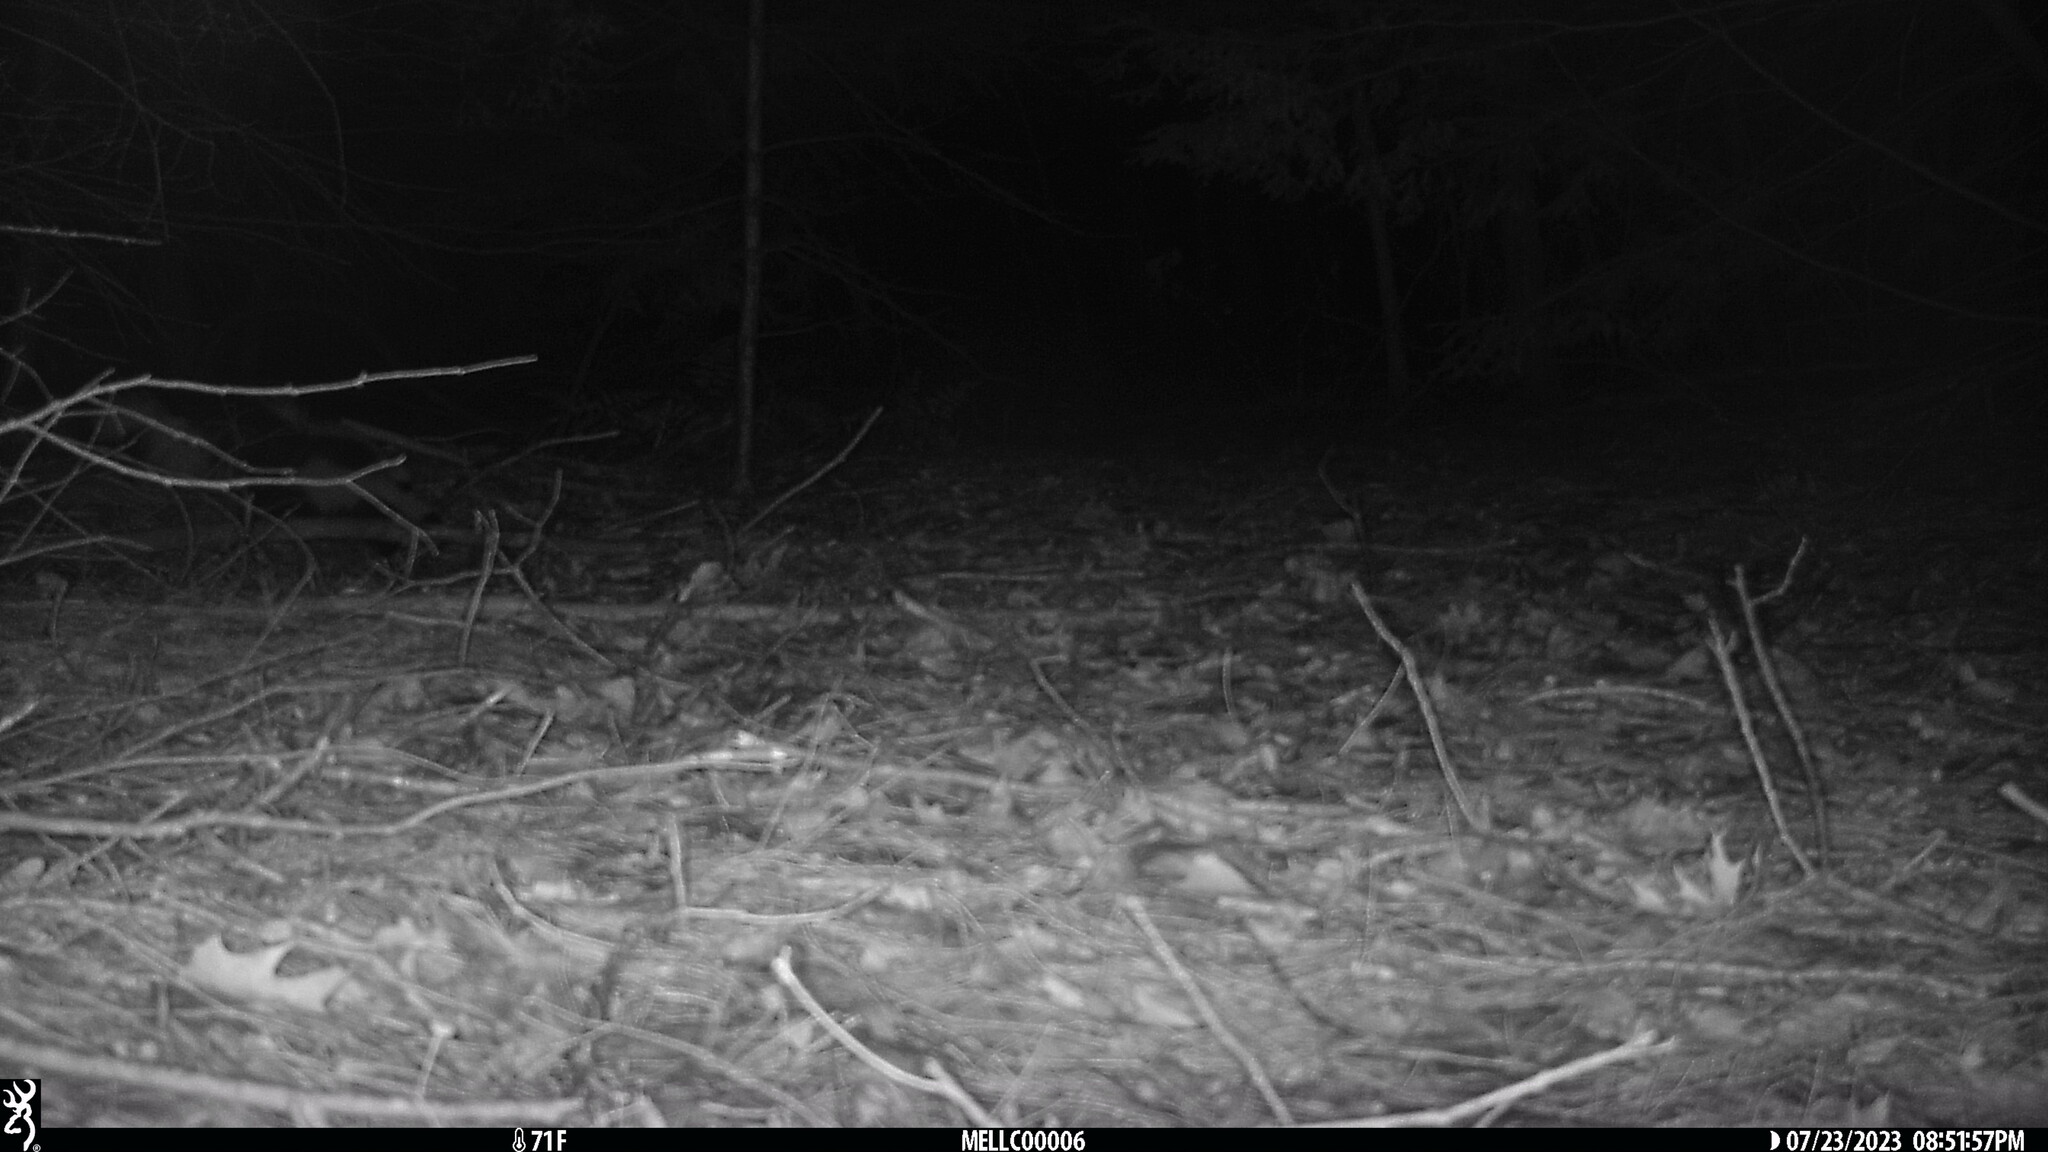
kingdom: Animalia
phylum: Chordata
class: Mammalia
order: Carnivora
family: Mephitidae
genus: Mephitis
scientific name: Mephitis mephitis
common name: Striped skunk
